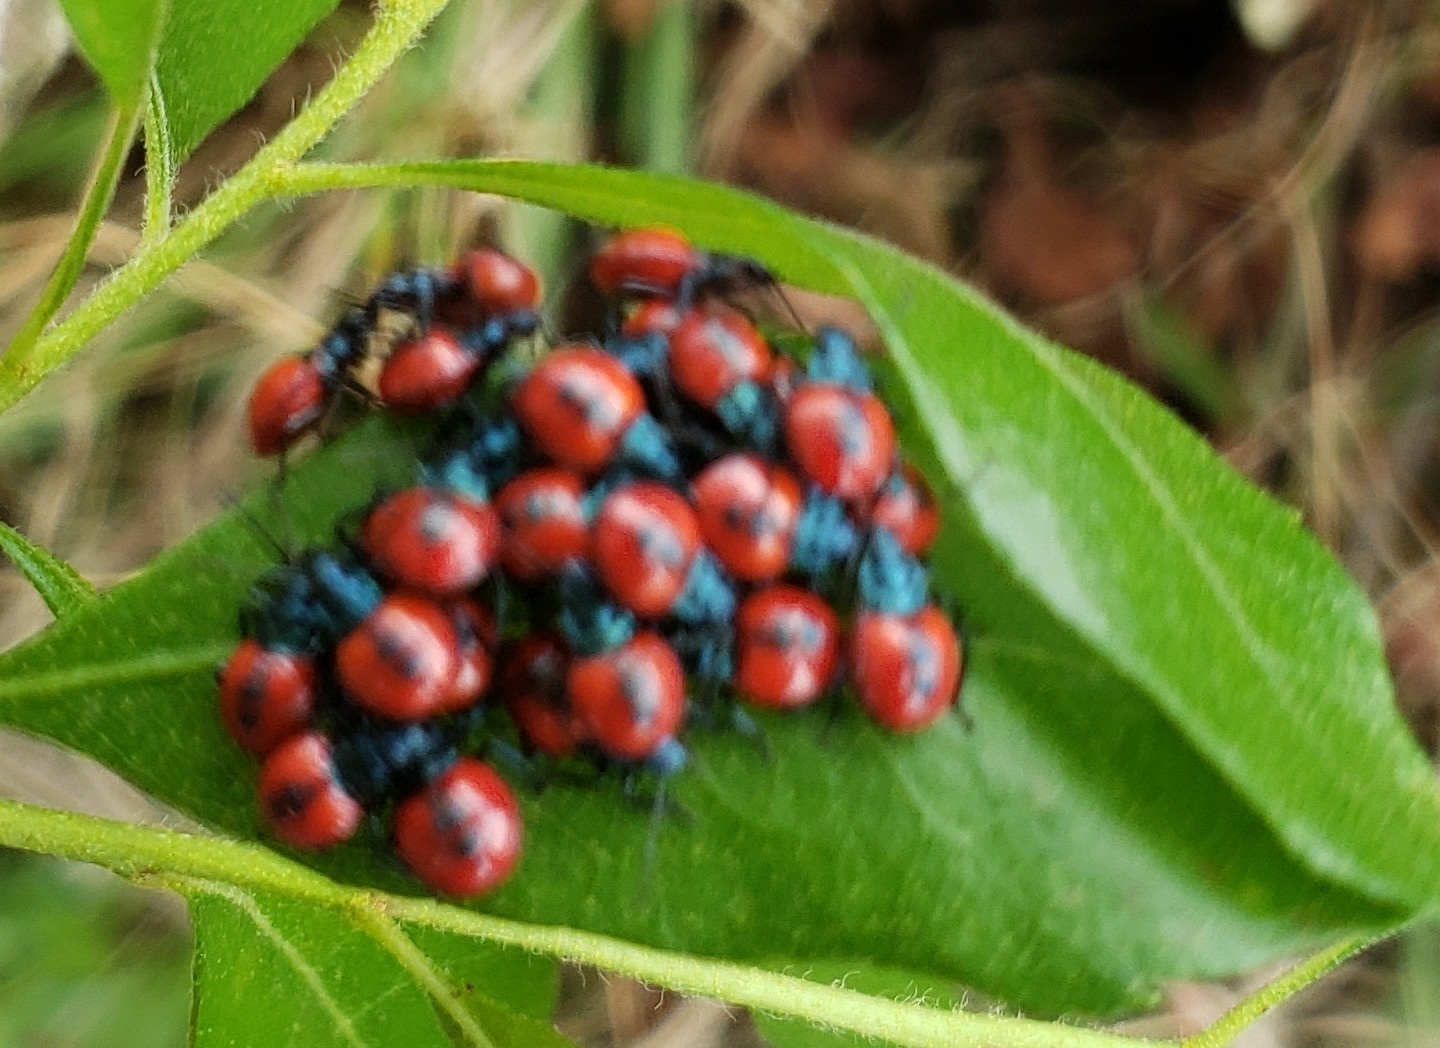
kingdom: Animalia
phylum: Arthropoda
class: Insecta
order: Hemiptera
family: Pentatomidae
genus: Euthyrhynchus
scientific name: Euthyrhynchus floridanus
